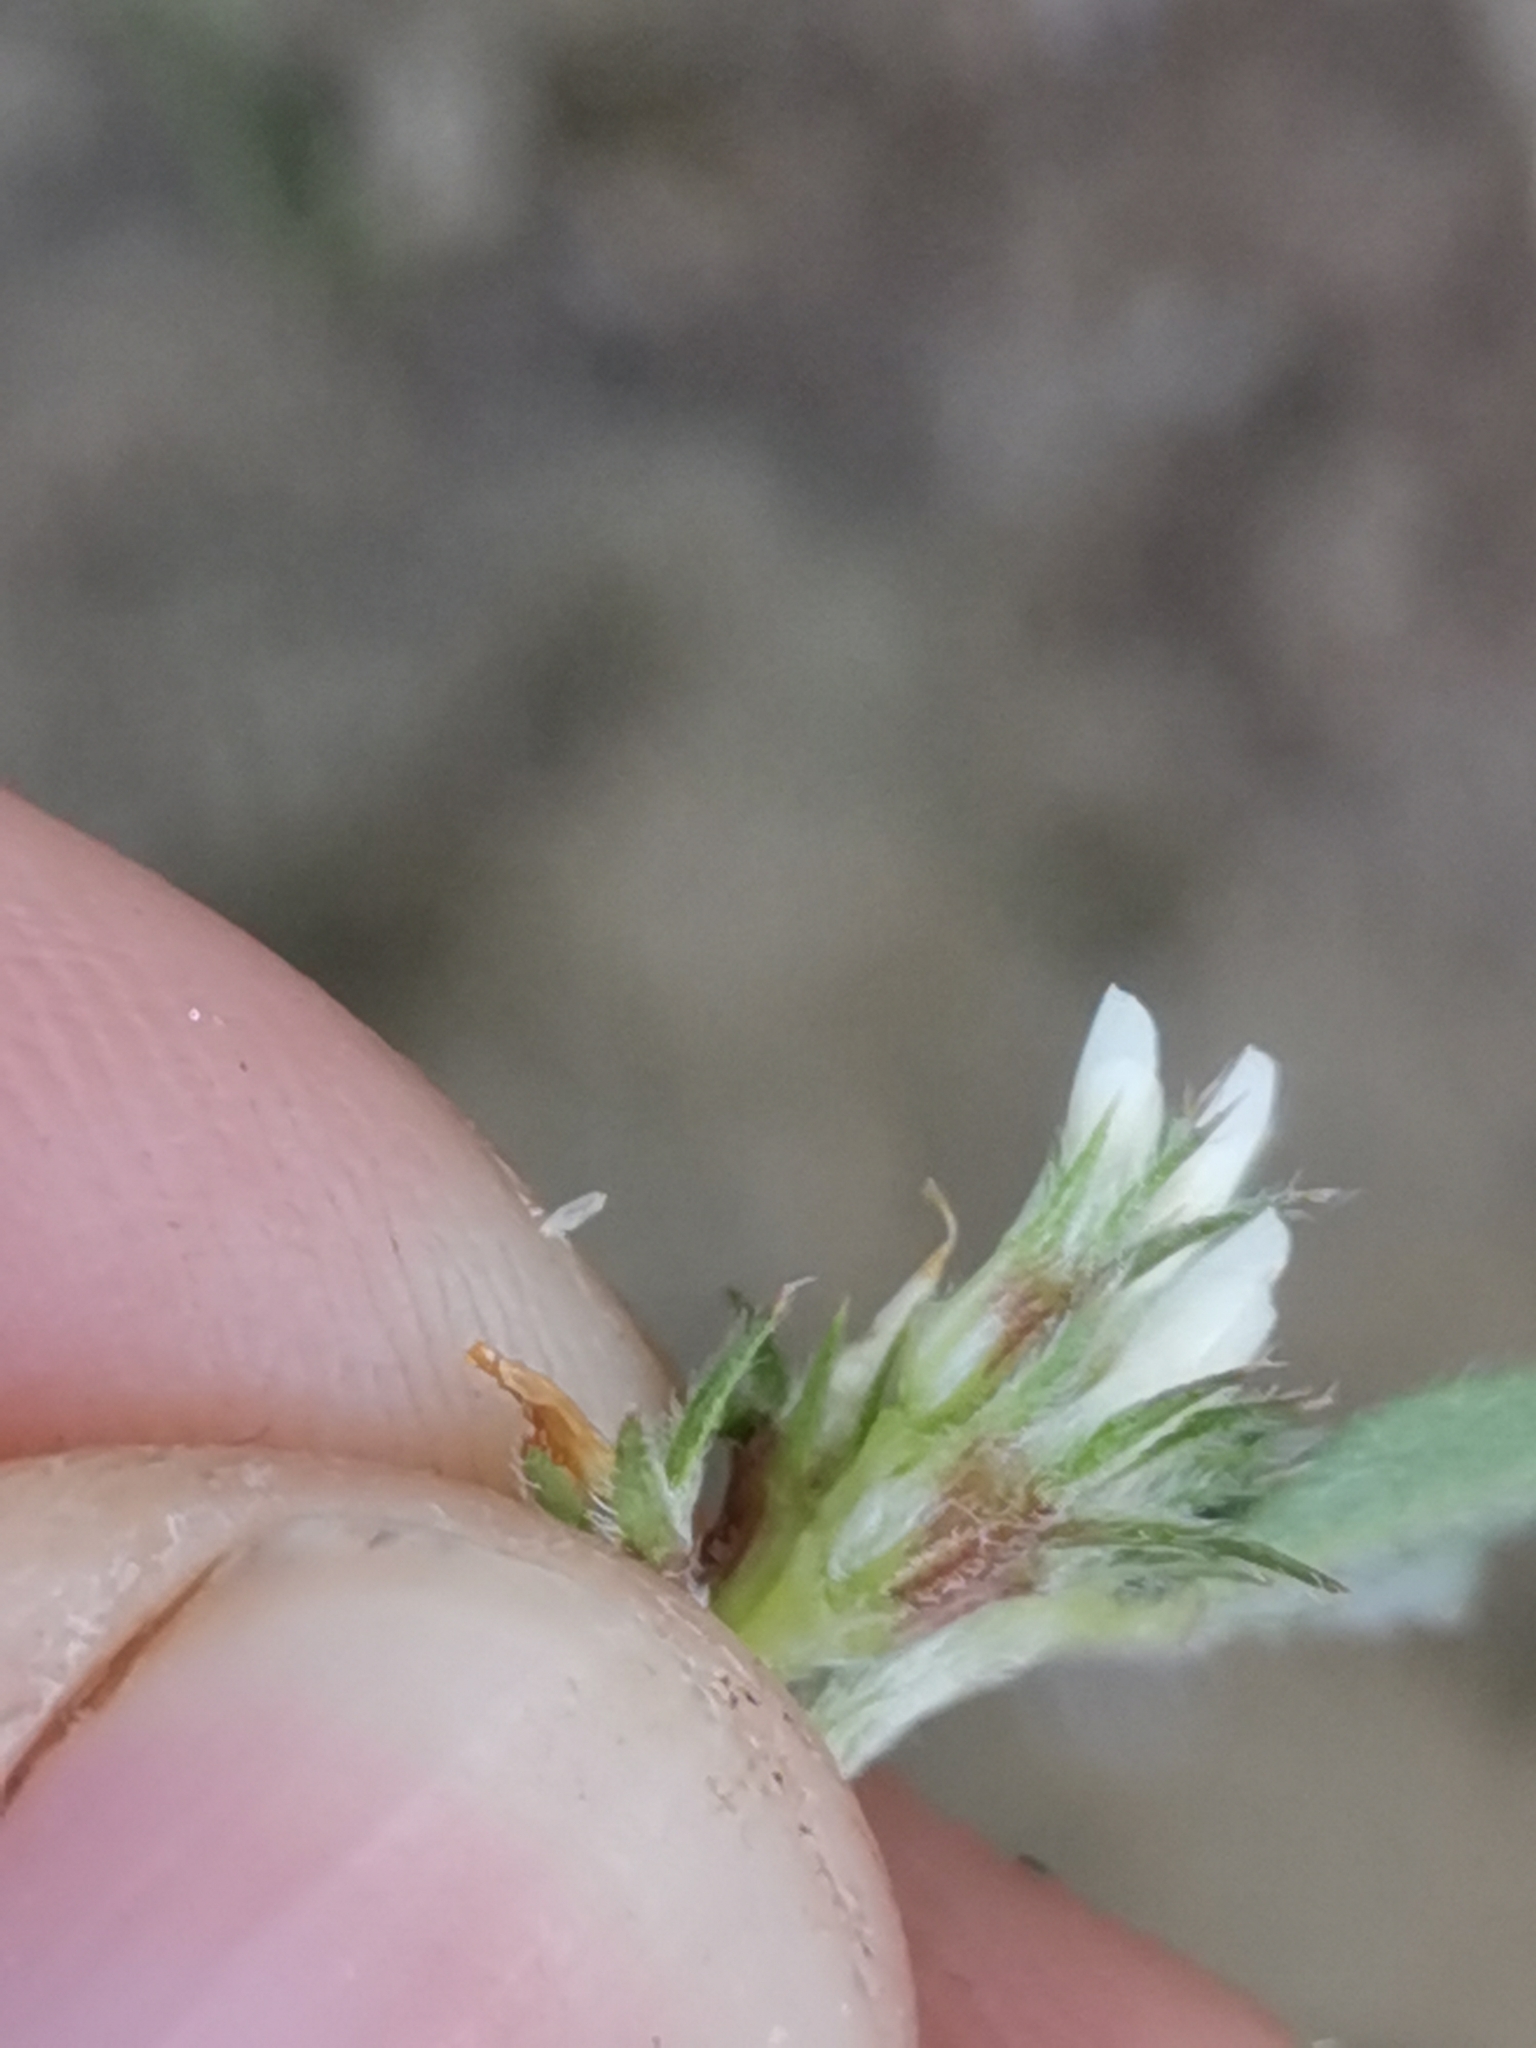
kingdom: Plantae
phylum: Tracheophyta
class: Magnoliopsida
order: Fabales
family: Fabaceae
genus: Trifolium
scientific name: Trifolium scabrum
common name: Rough clover
